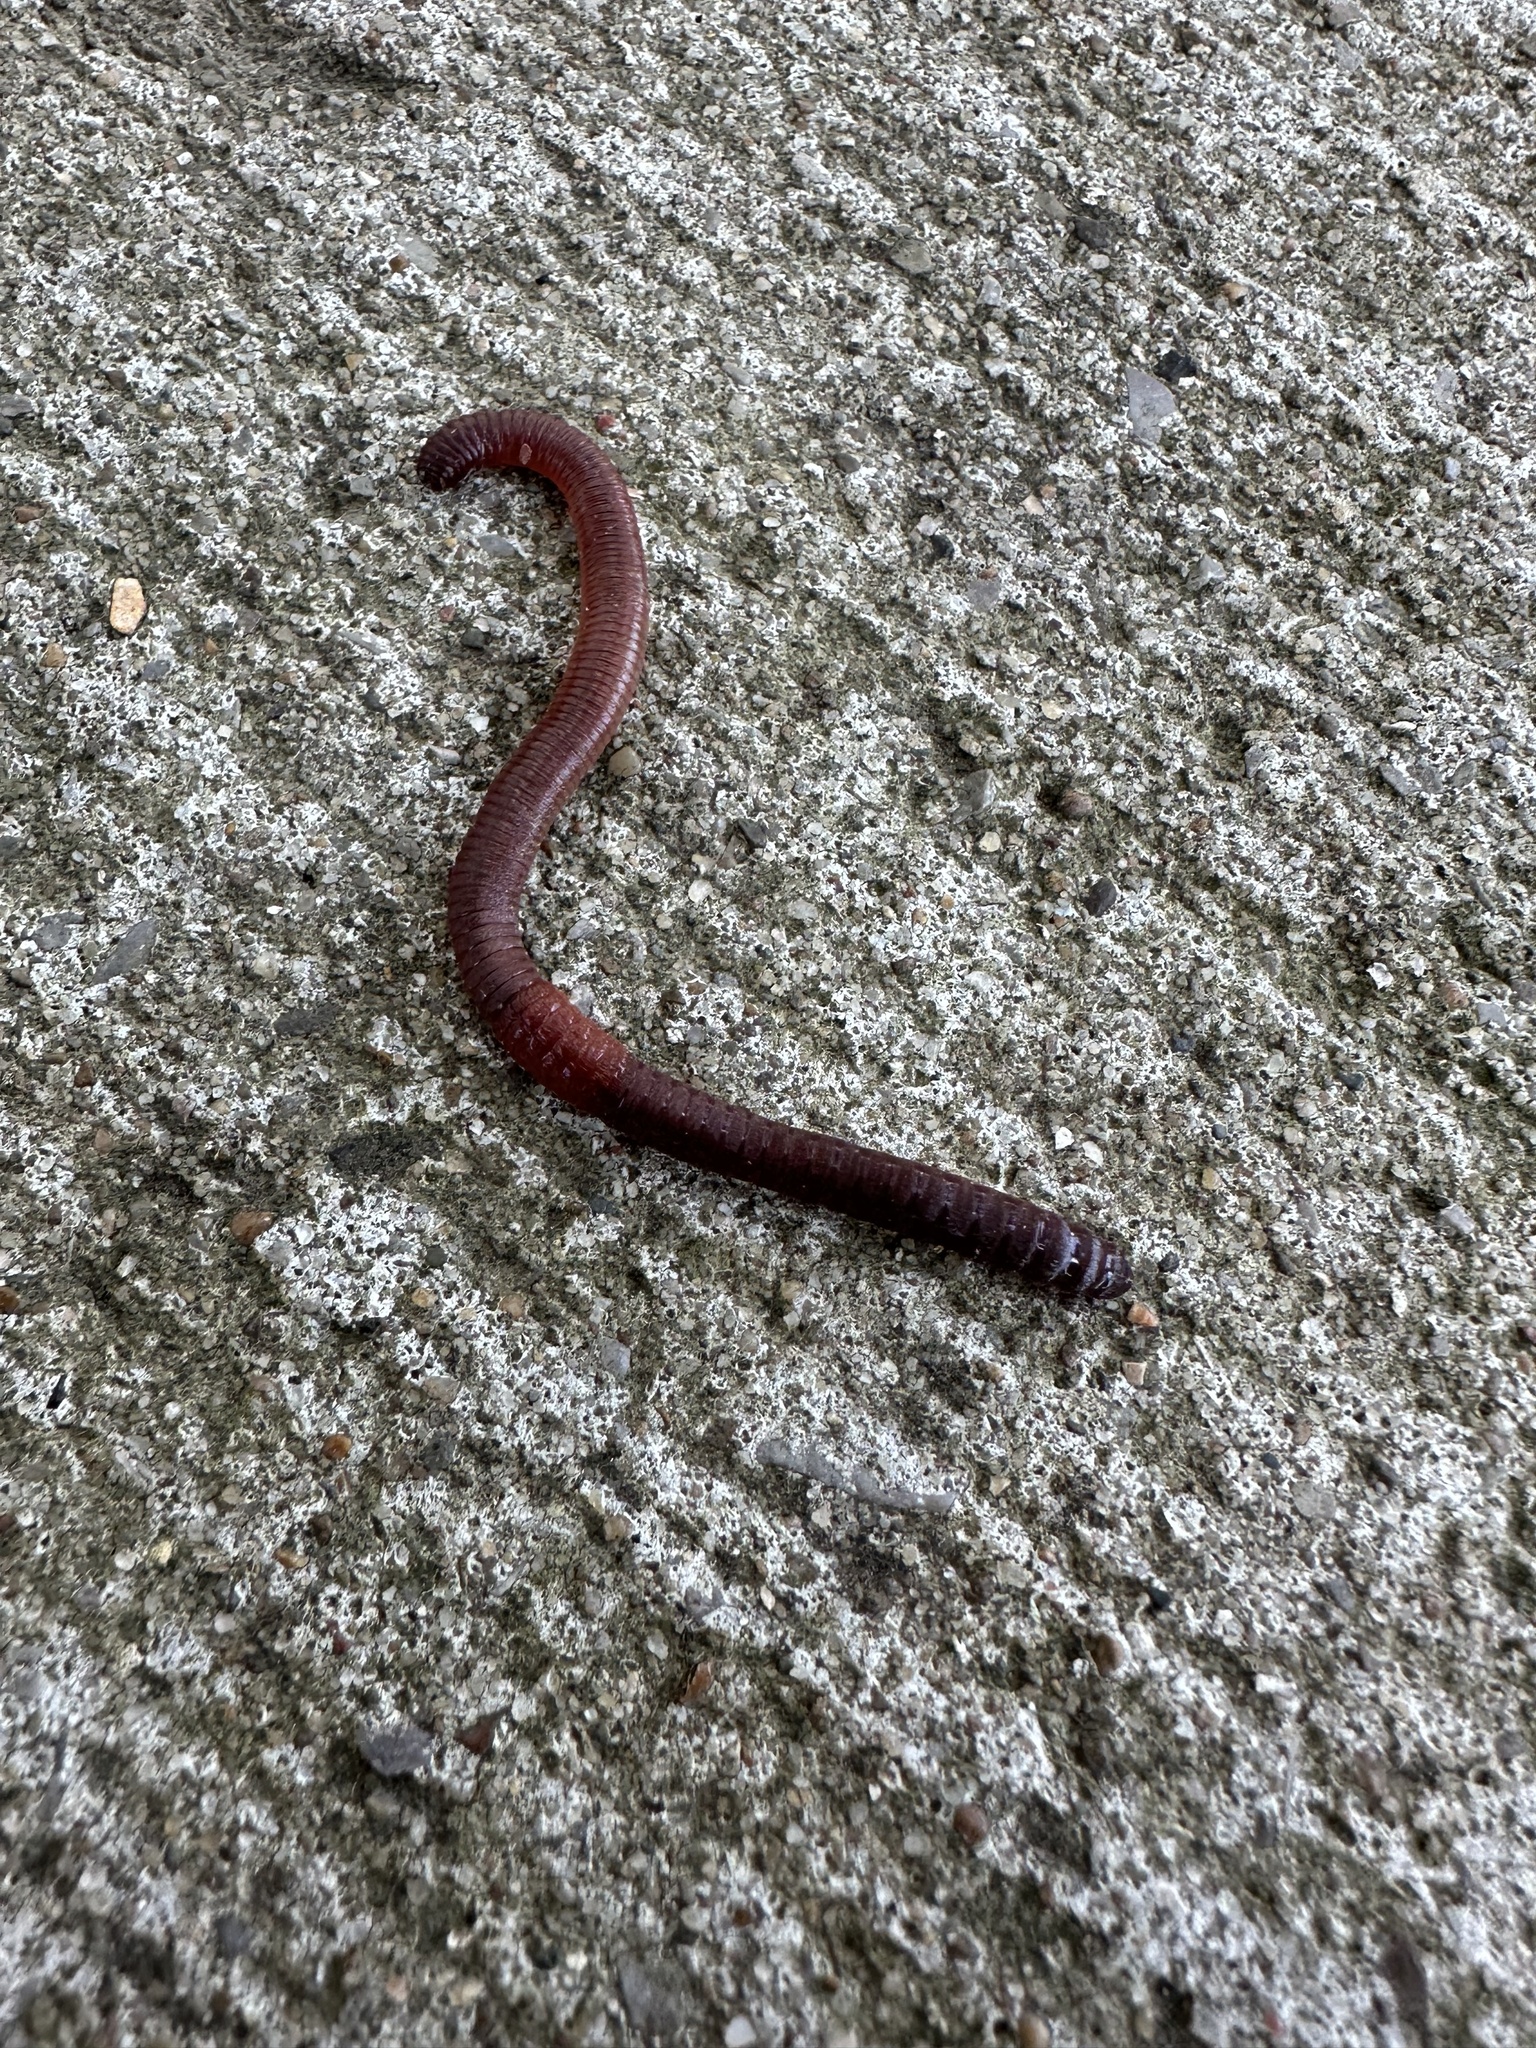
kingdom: Animalia
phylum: Annelida
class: Clitellata
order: Crassiclitellata
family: Lumbricidae
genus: Lumbricus
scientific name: Lumbricus terrestris
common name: Common earthworm
